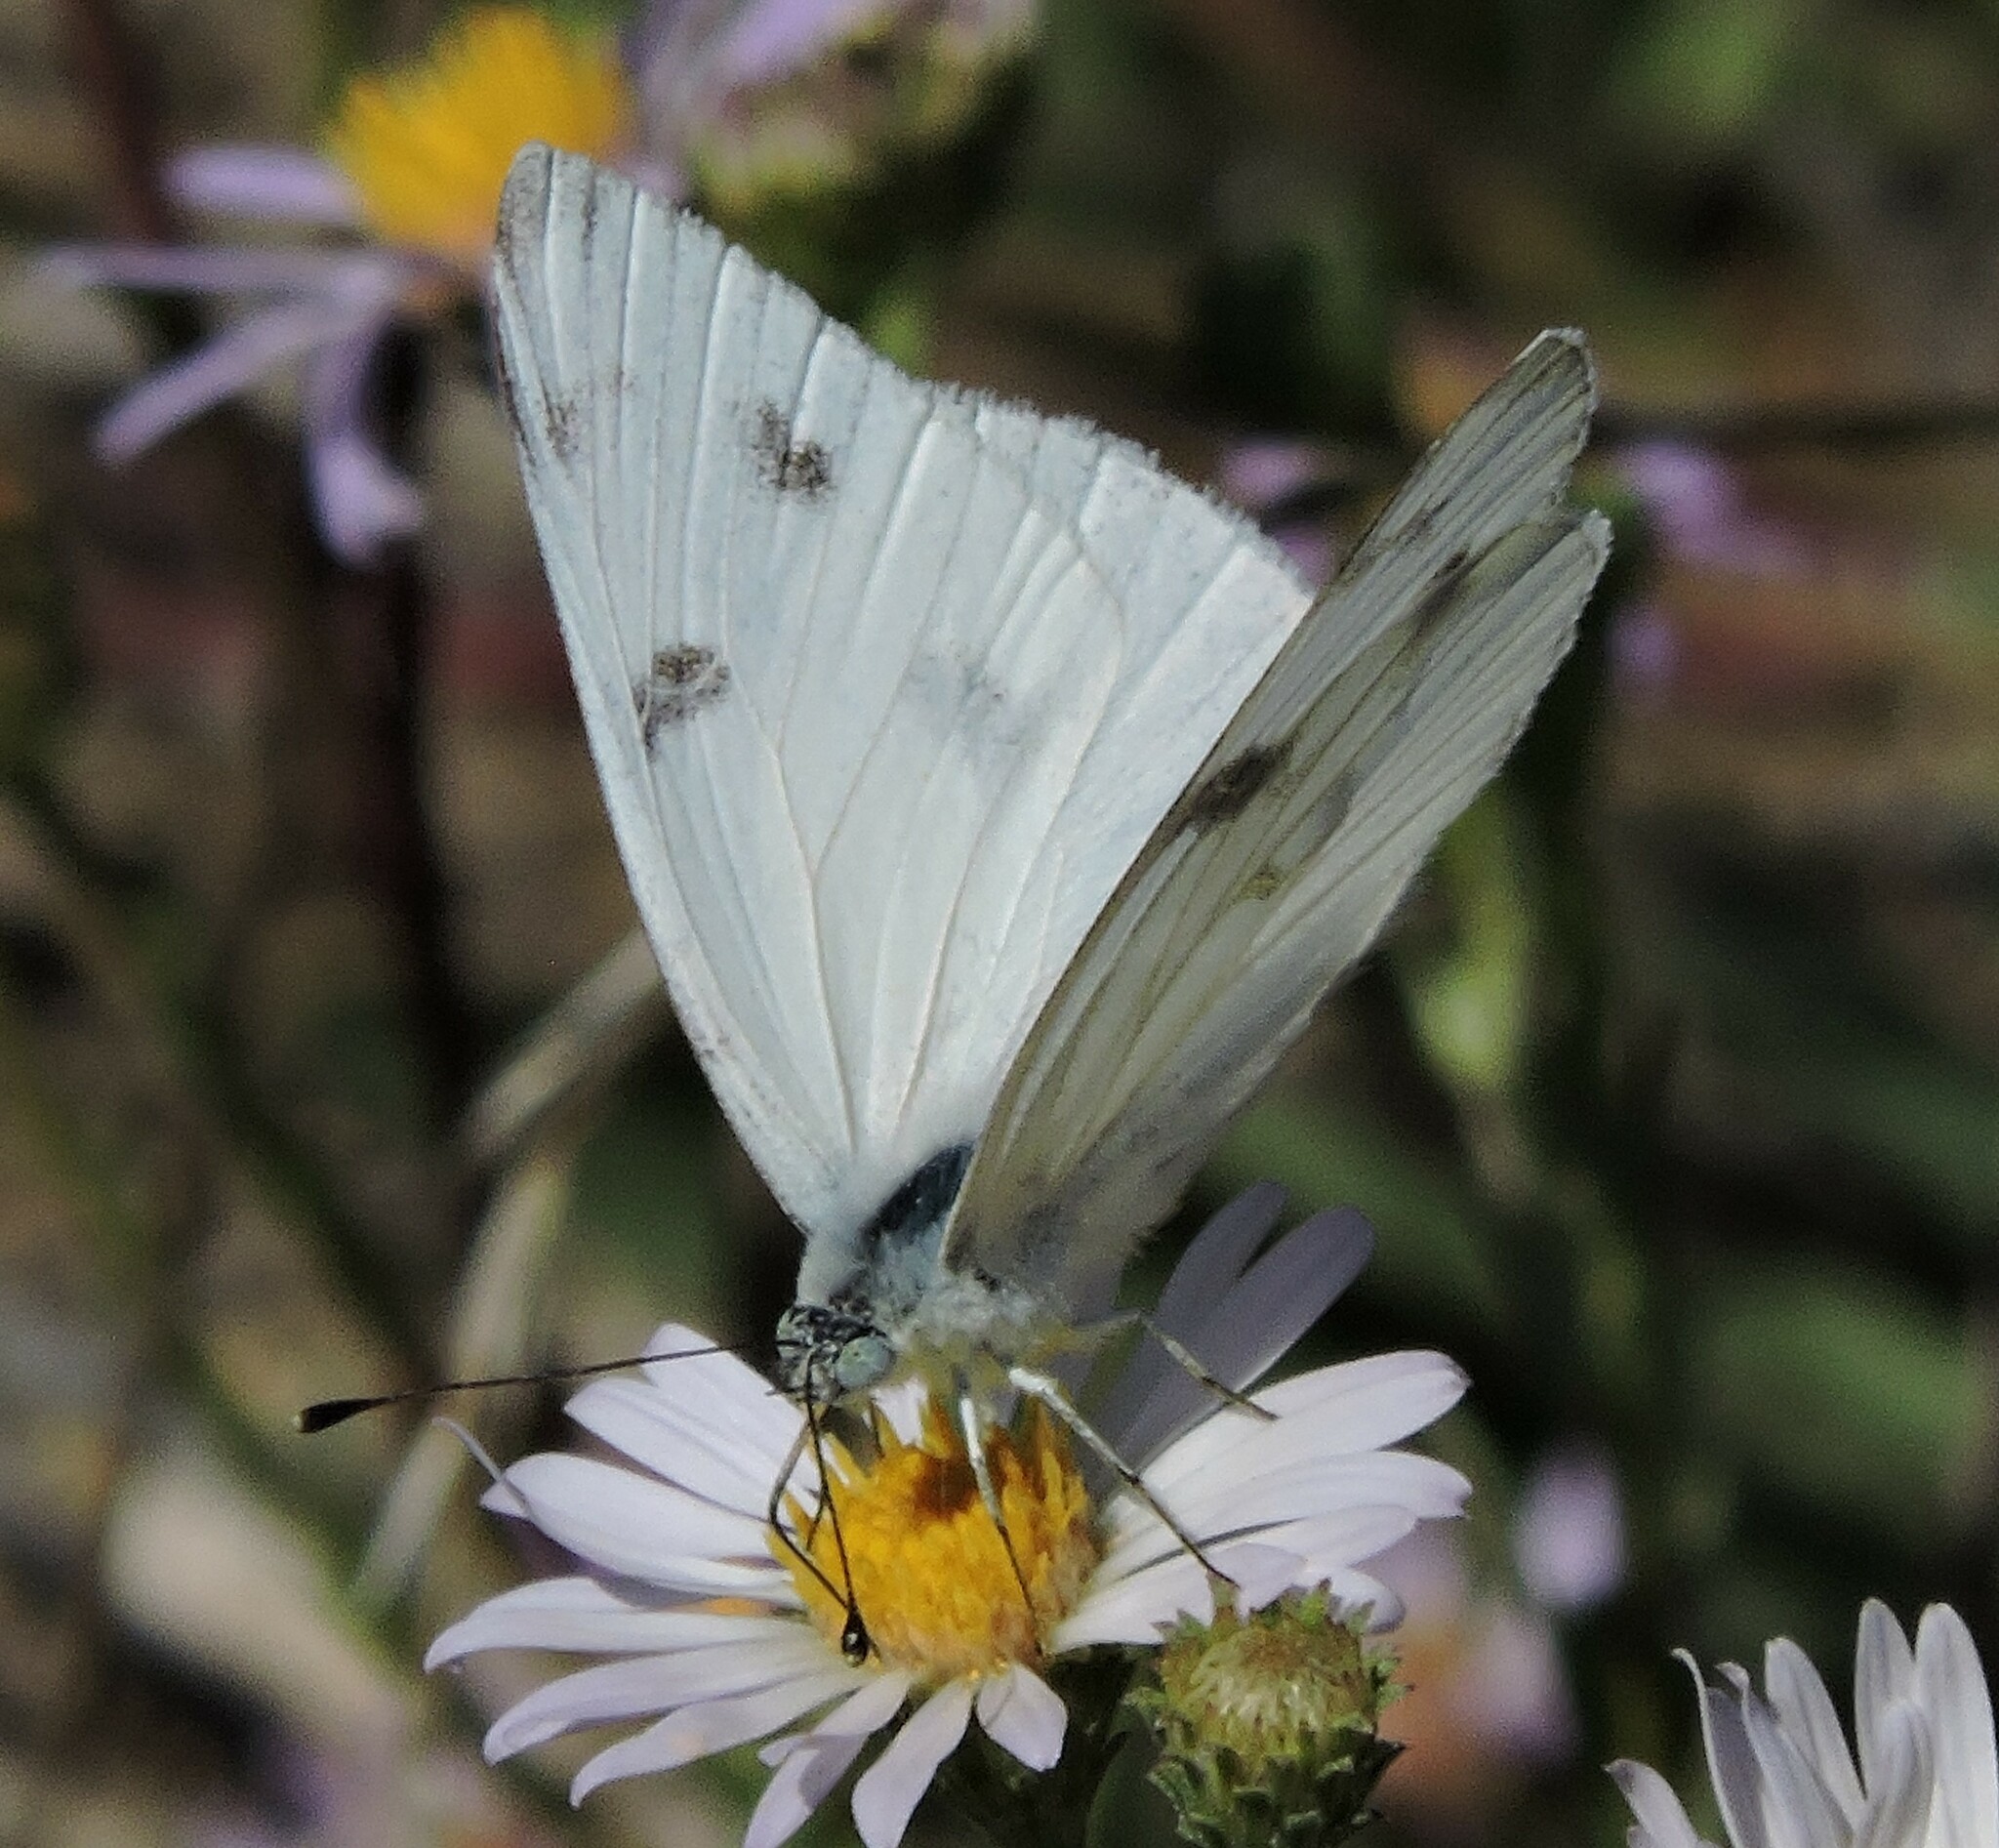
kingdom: Animalia
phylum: Arthropoda
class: Insecta
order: Lepidoptera
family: Pieridae
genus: Pontia
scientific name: Pontia protodice
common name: Checkered white
